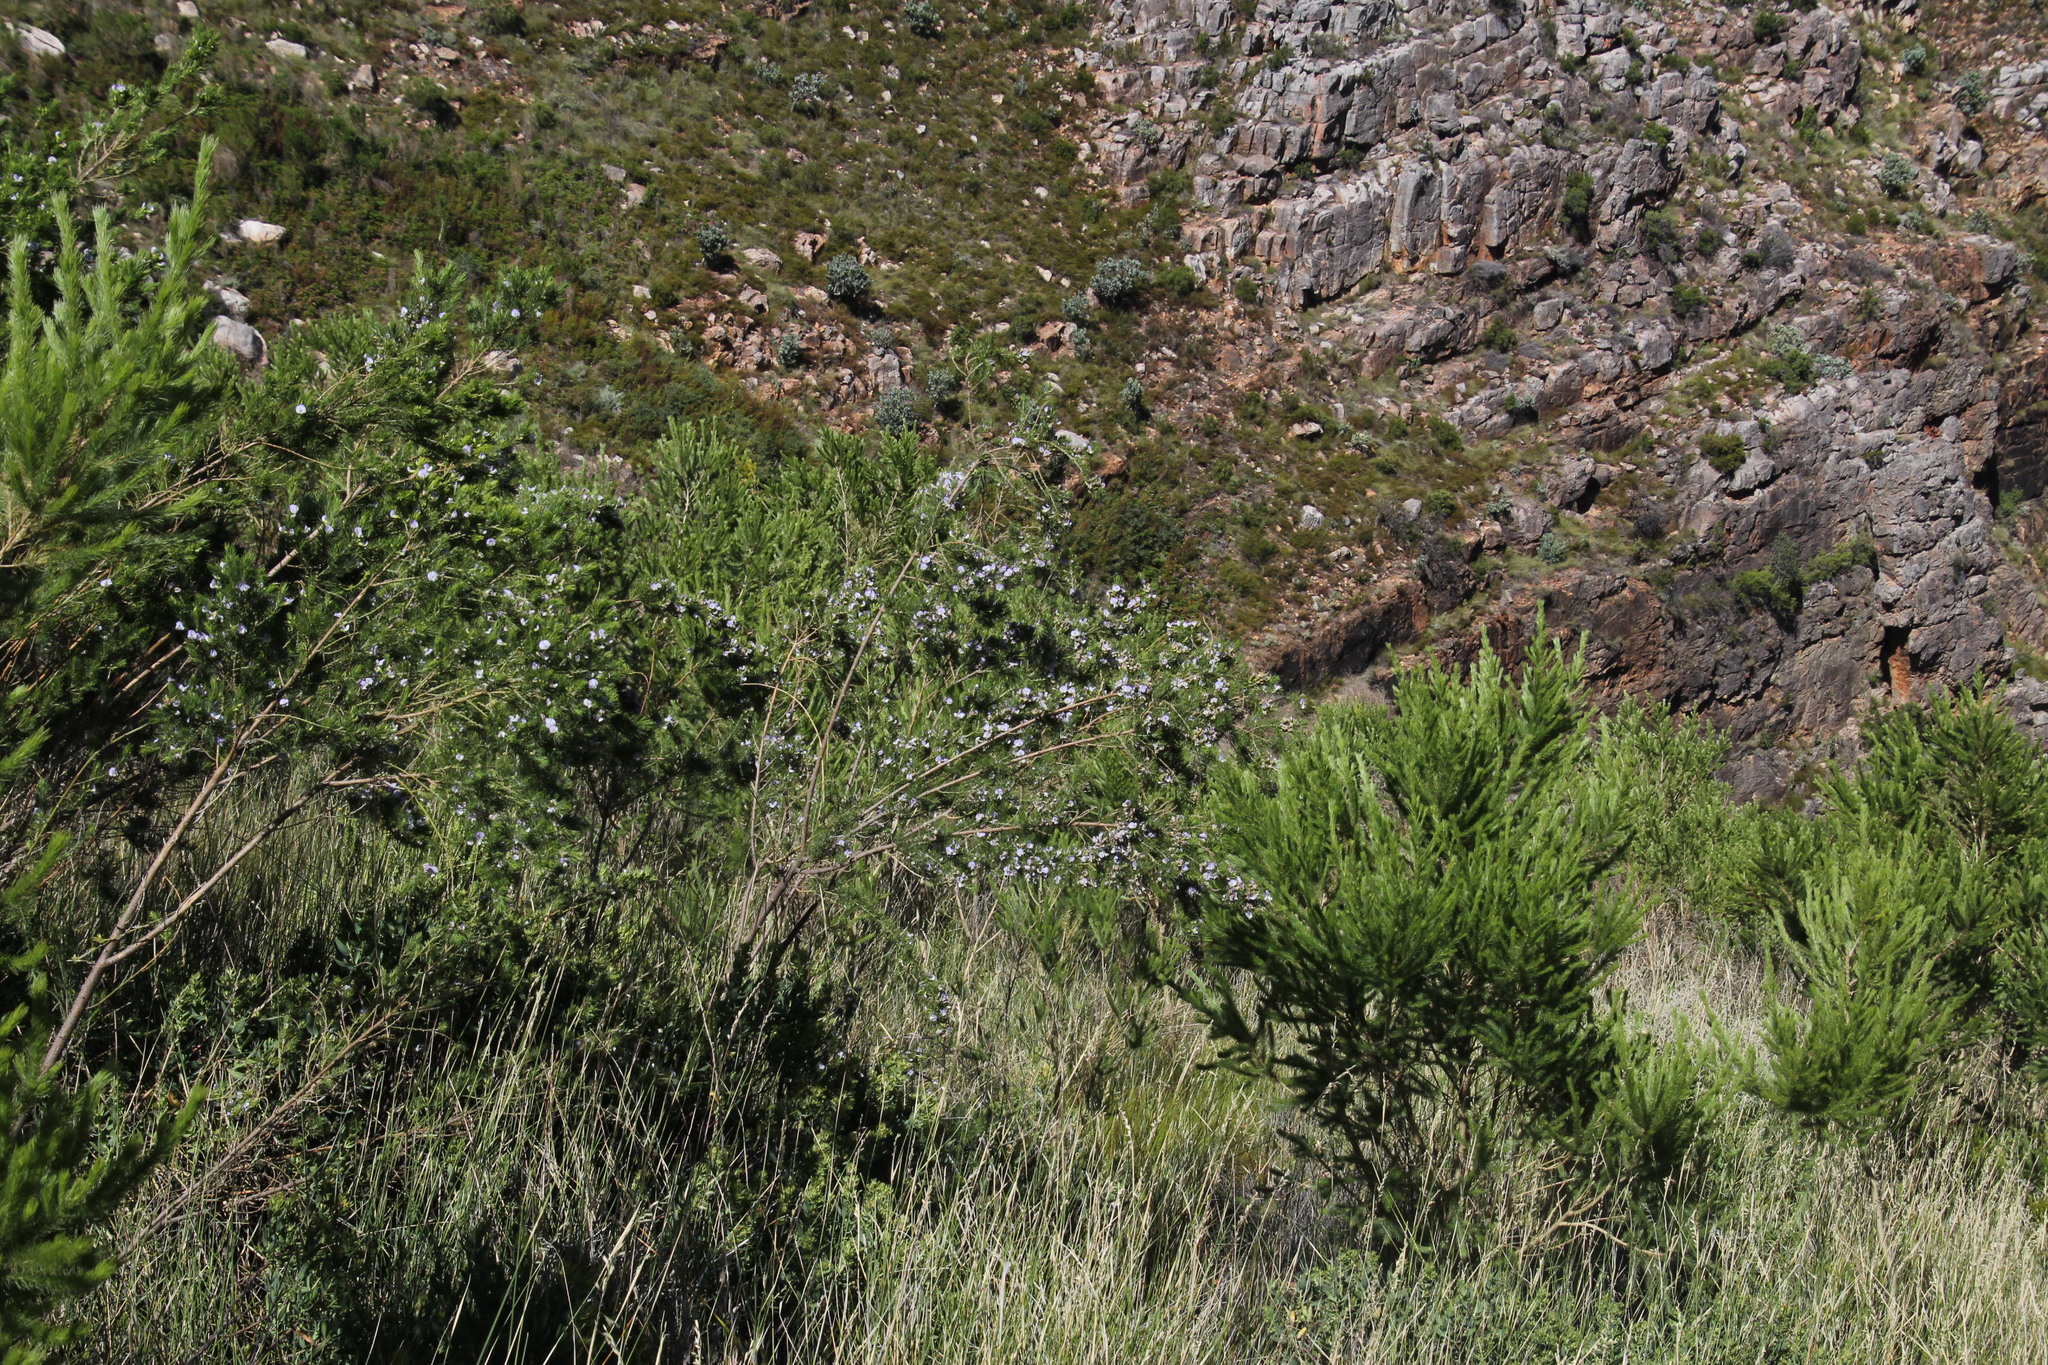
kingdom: Plantae
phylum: Tracheophyta
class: Magnoliopsida
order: Fabales
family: Fabaceae
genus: Psoralea
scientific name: Psoralea intonsa
